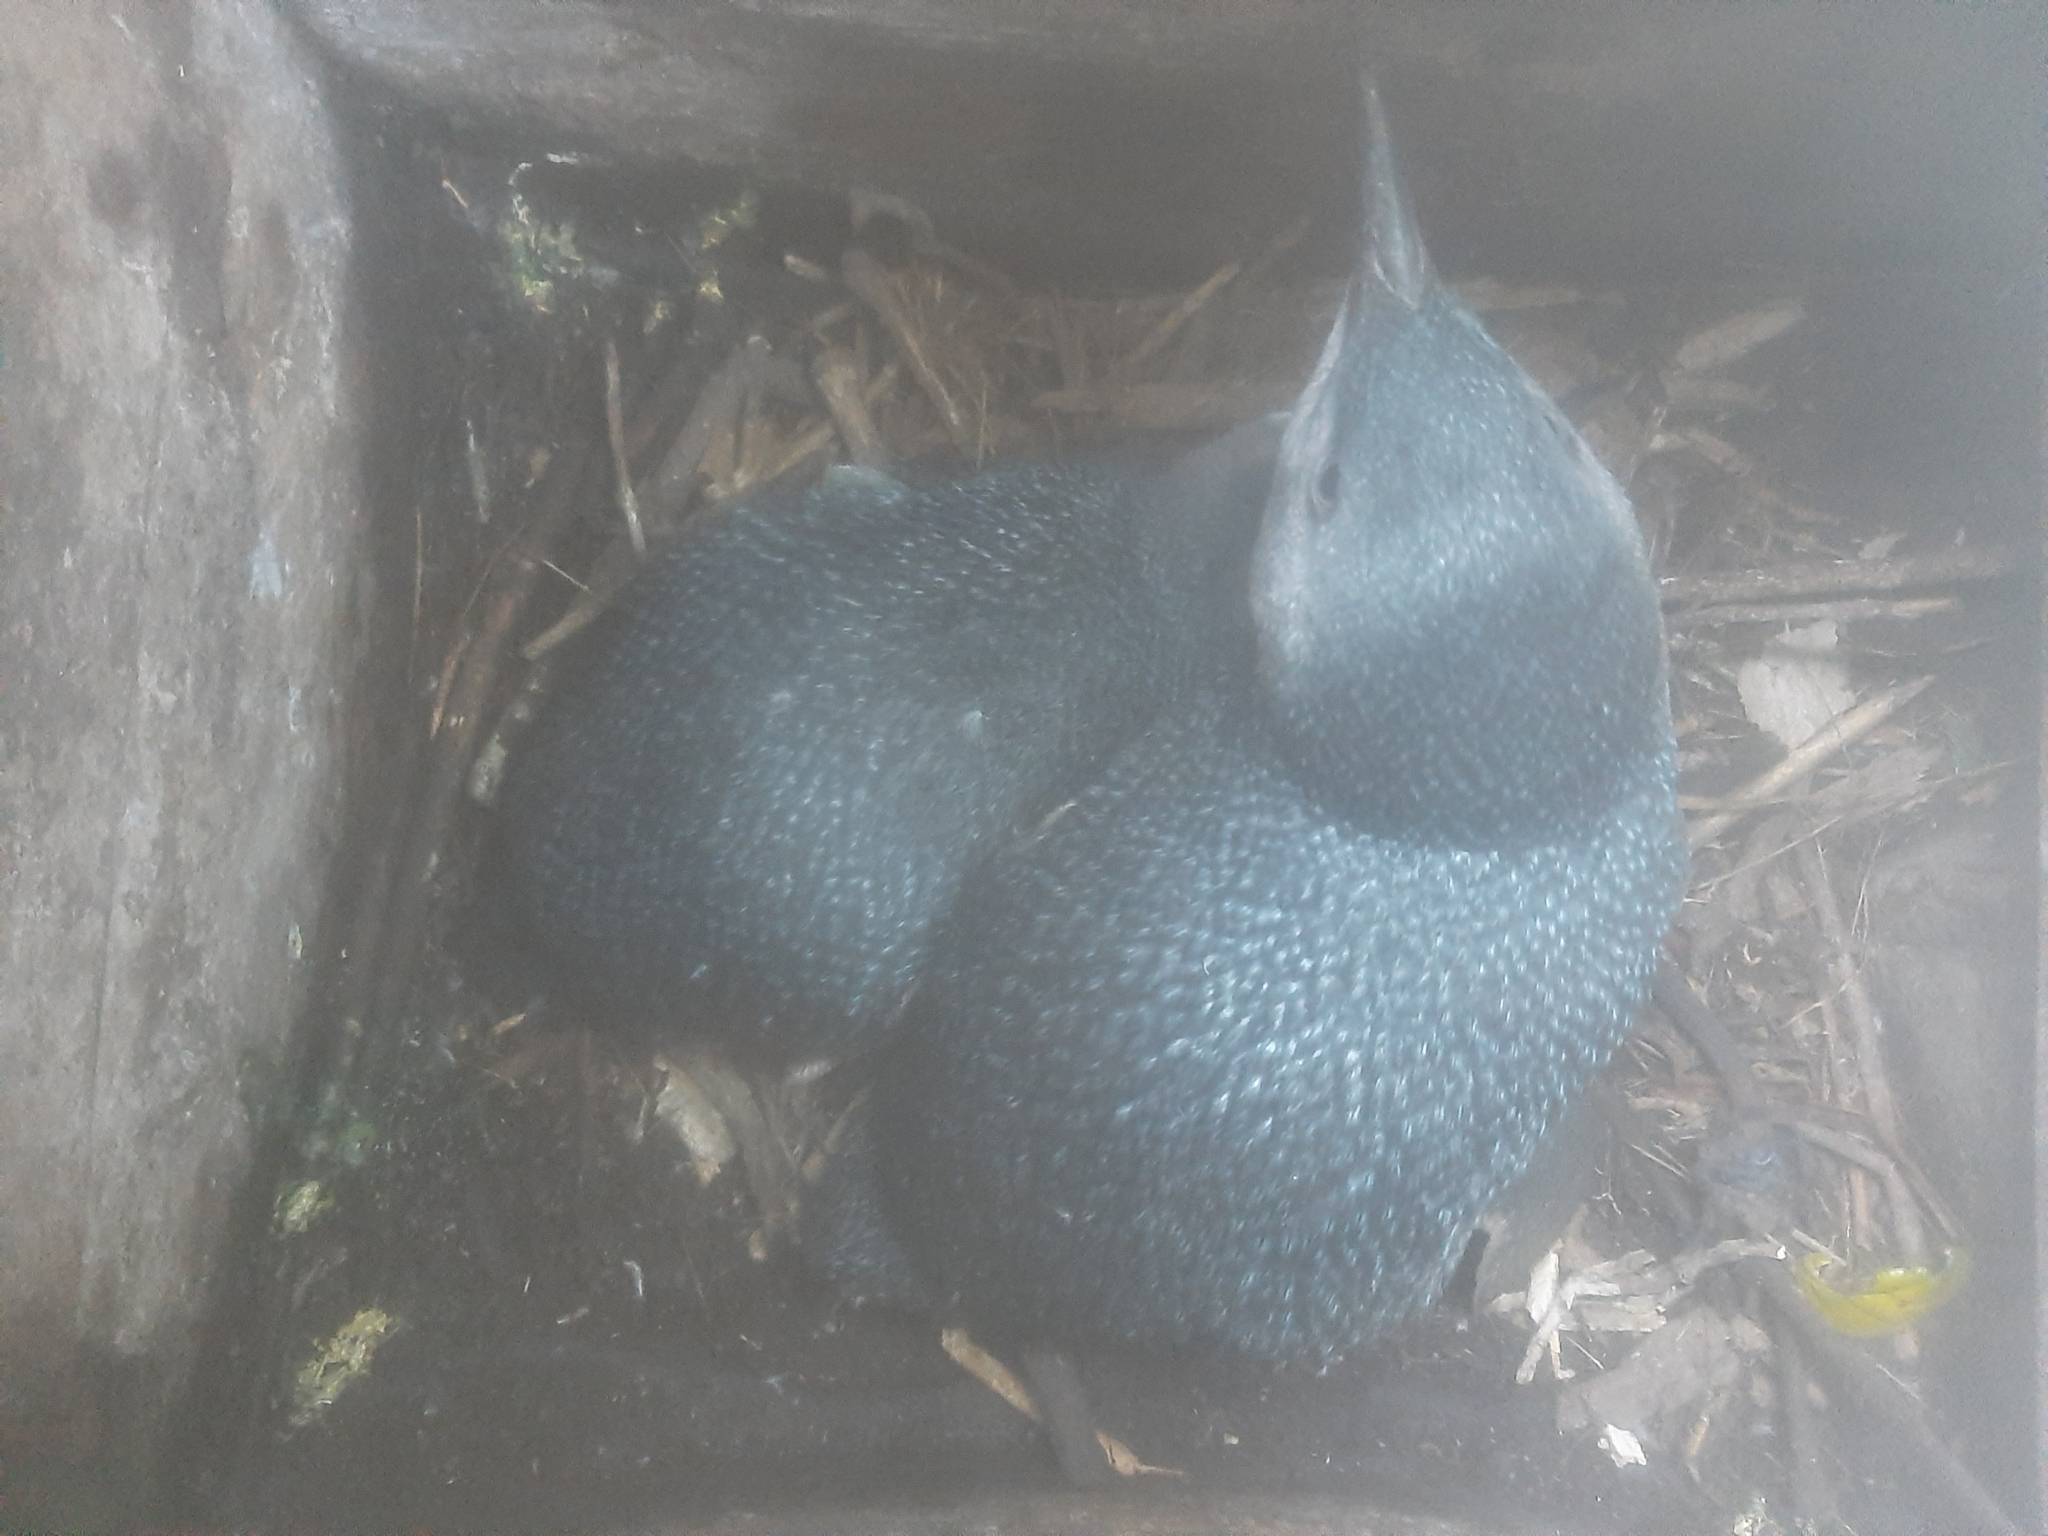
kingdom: Animalia
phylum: Chordata
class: Aves
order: Sphenisciformes
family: Spheniscidae
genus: Eudyptula
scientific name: Eudyptula minor
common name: Little penguin
